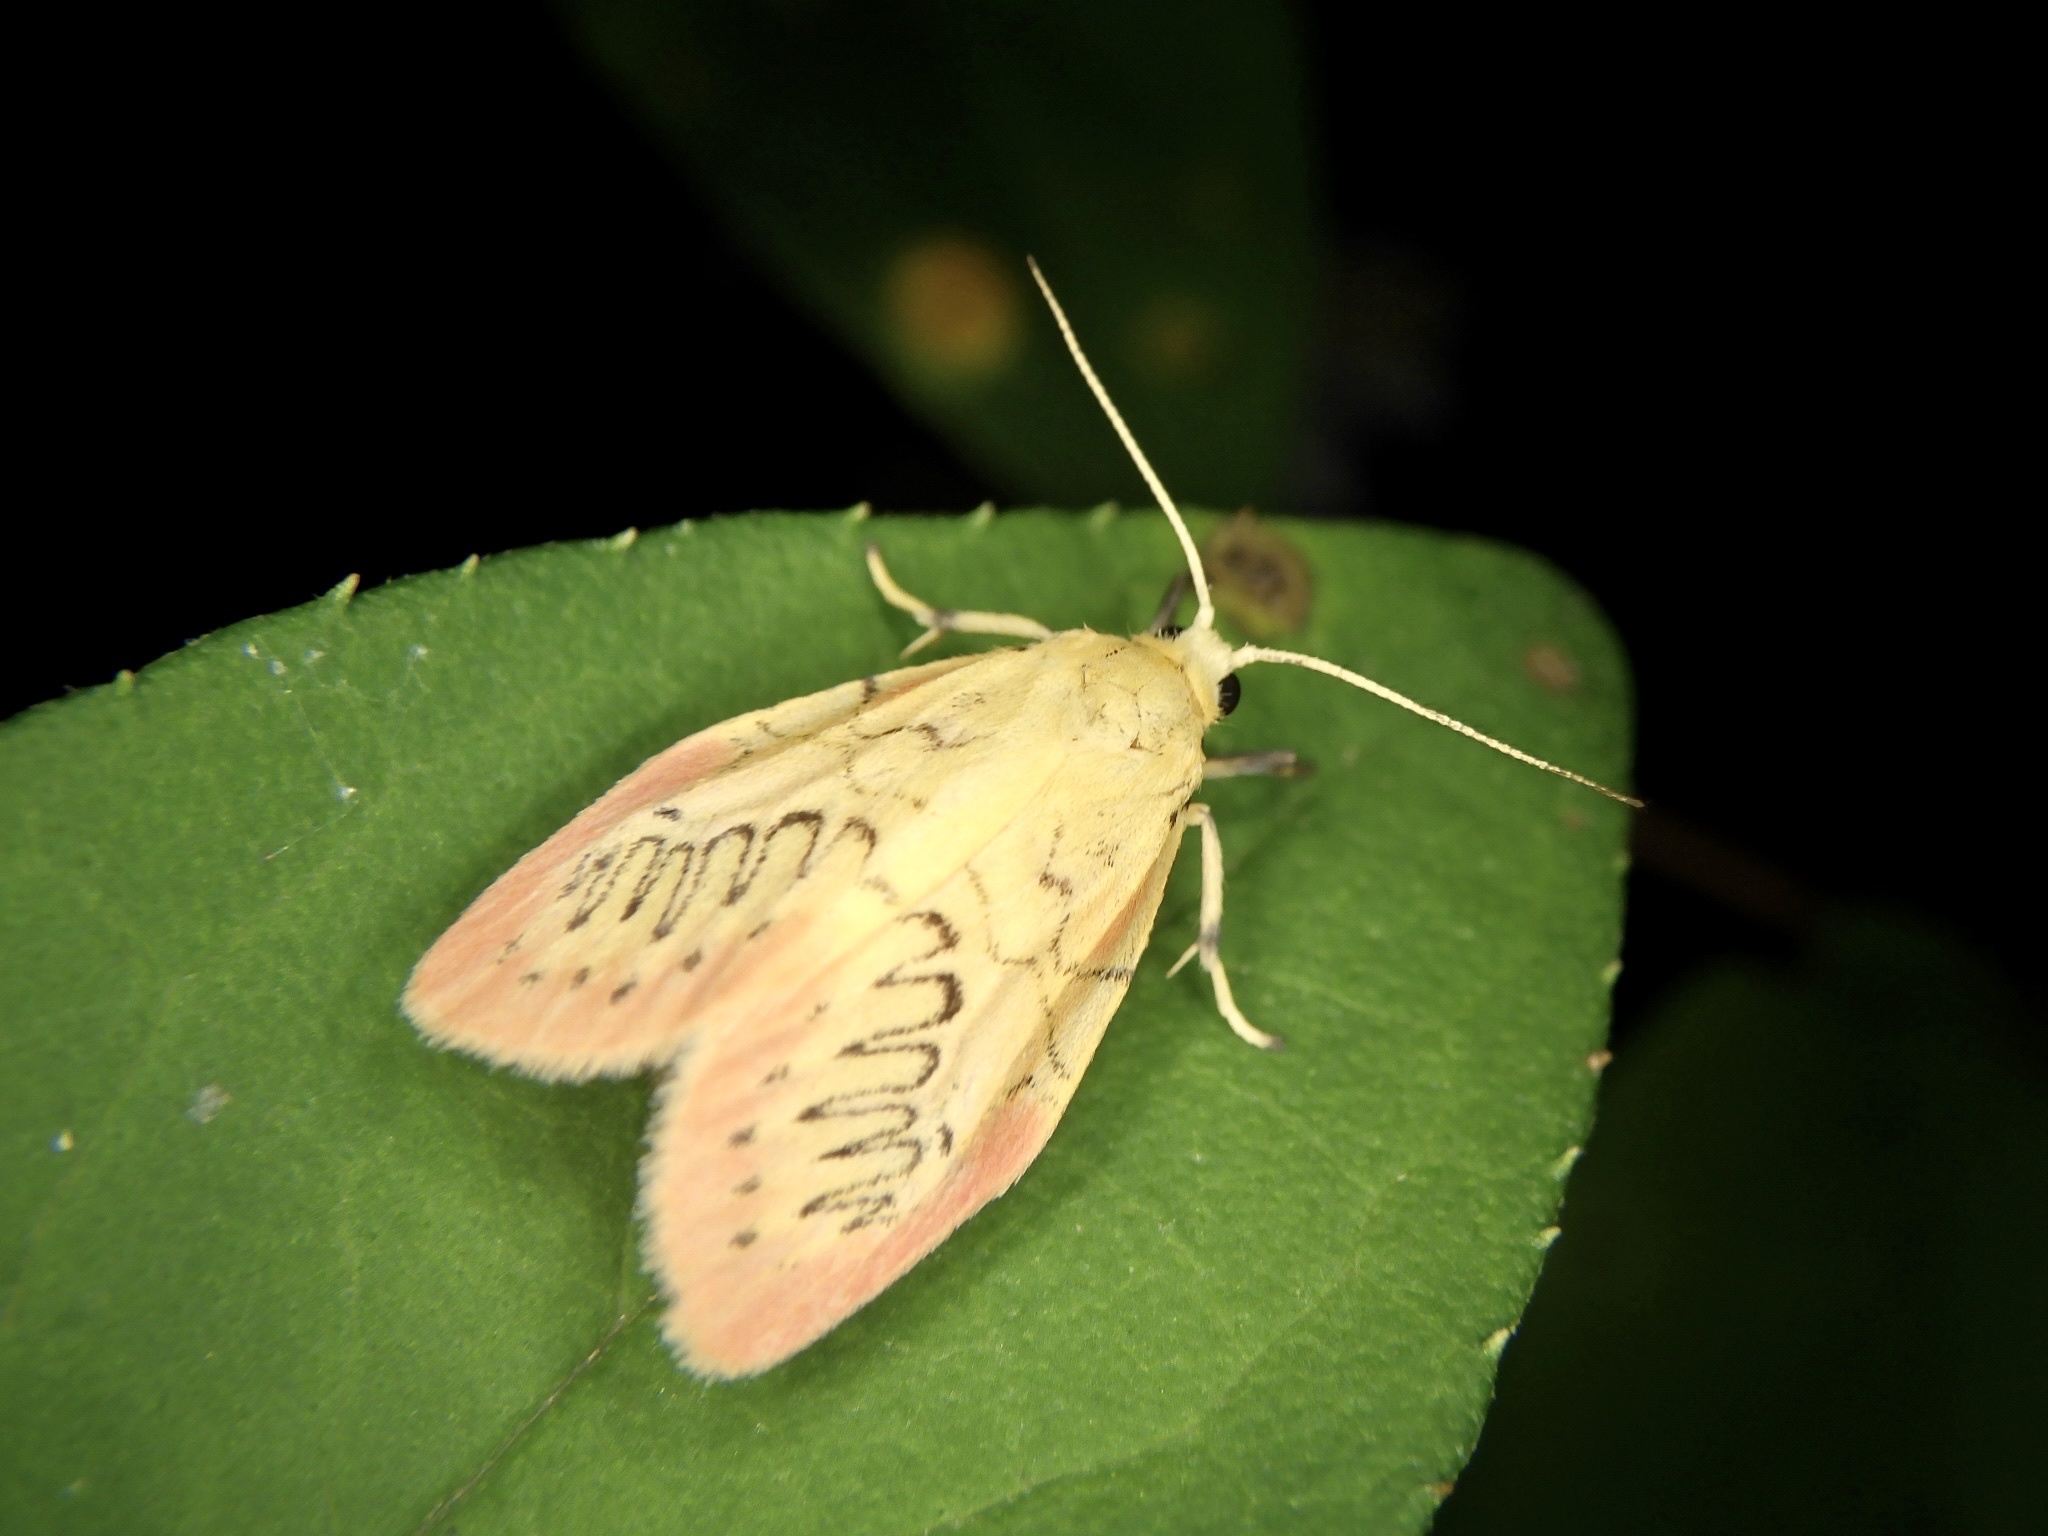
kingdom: Animalia
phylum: Arthropoda
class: Insecta
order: Lepidoptera
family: Erebidae
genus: Miltochrista
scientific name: Miltochrista miniata
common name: Rosy footman
